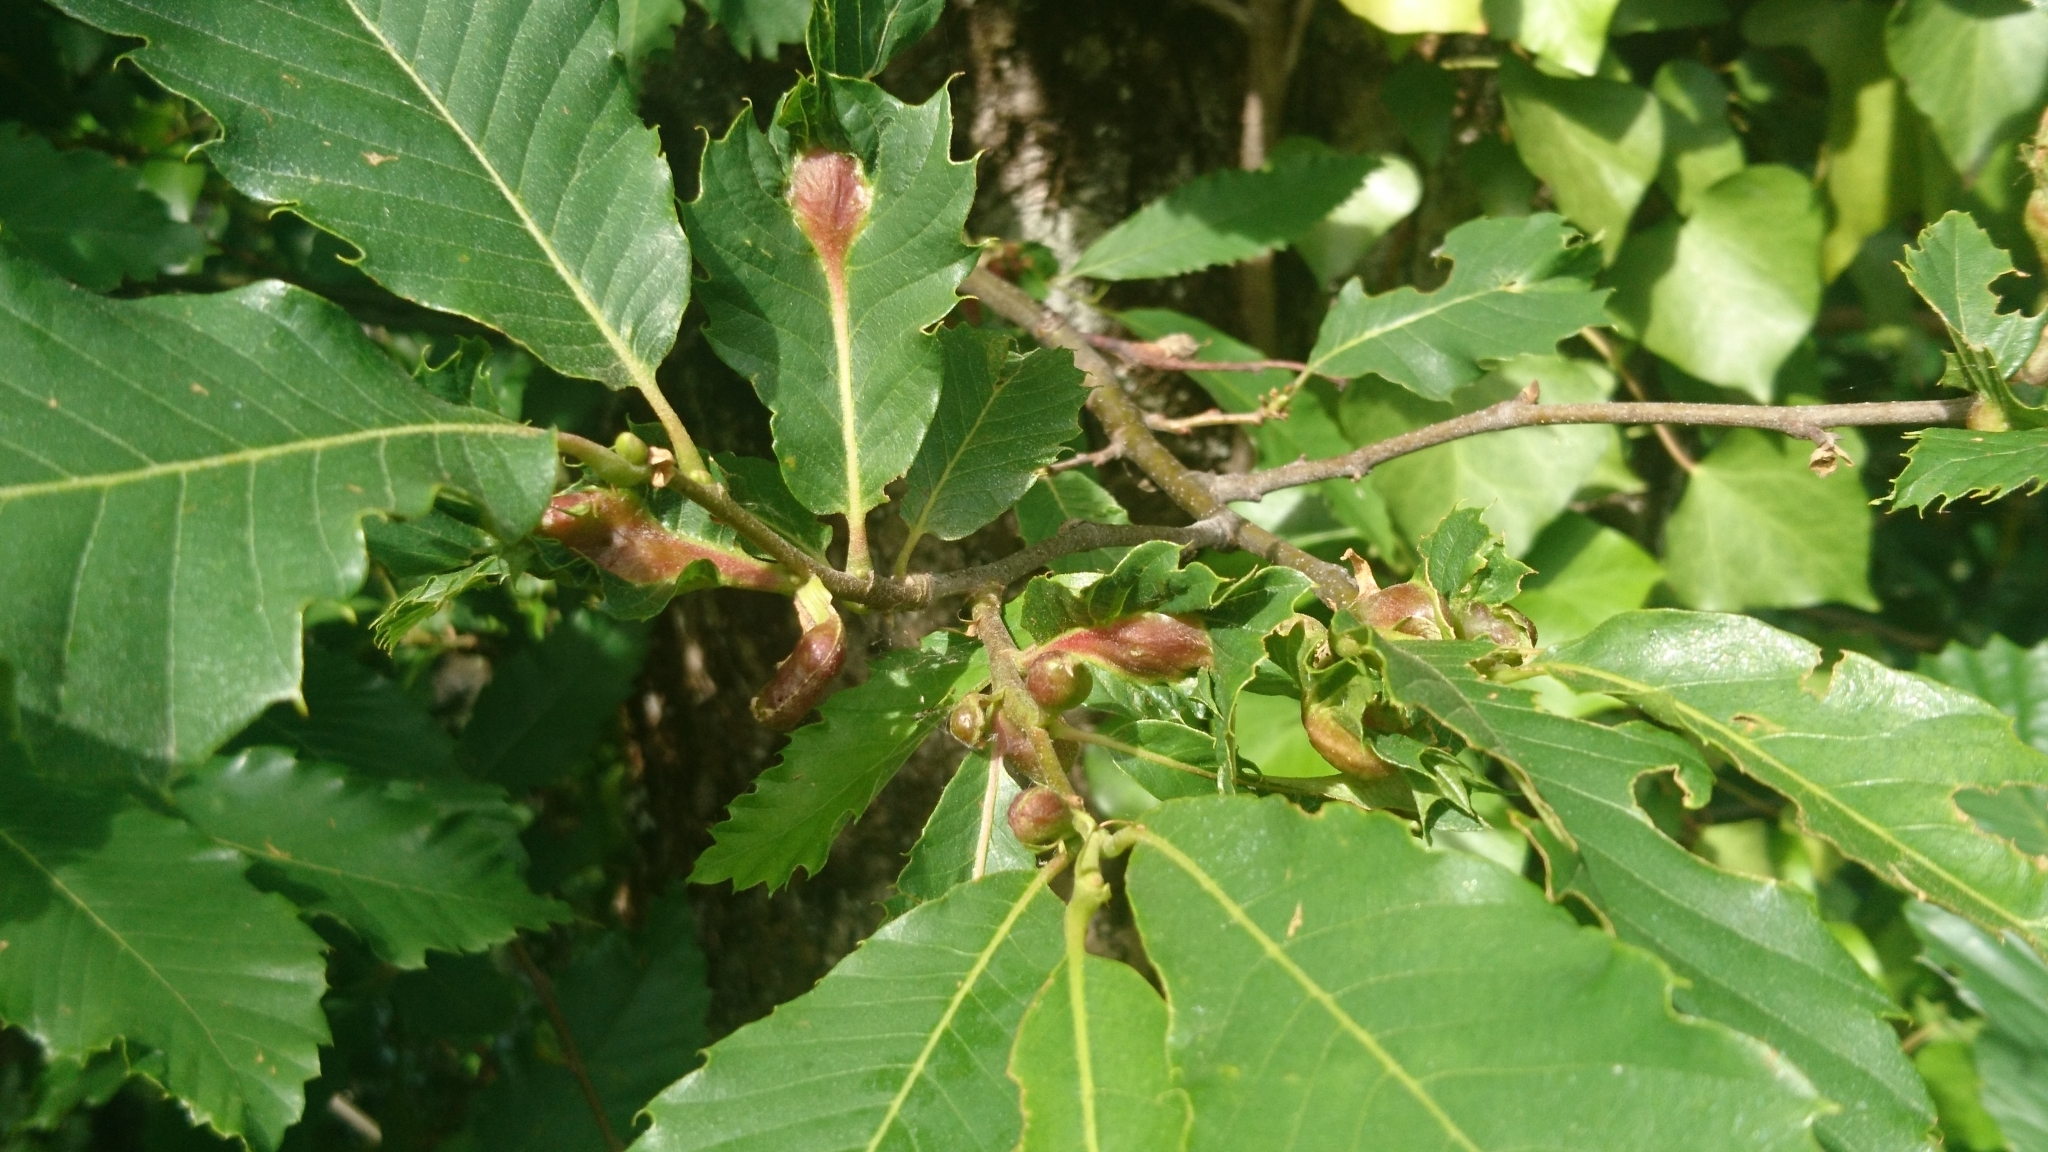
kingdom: Animalia
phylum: Arthropoda
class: Insecta
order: Hymenoptera
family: Cynipidae
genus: Dryocosmus
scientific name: Dryocosmus kuriphilus
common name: Asian chestnut gall wasp
